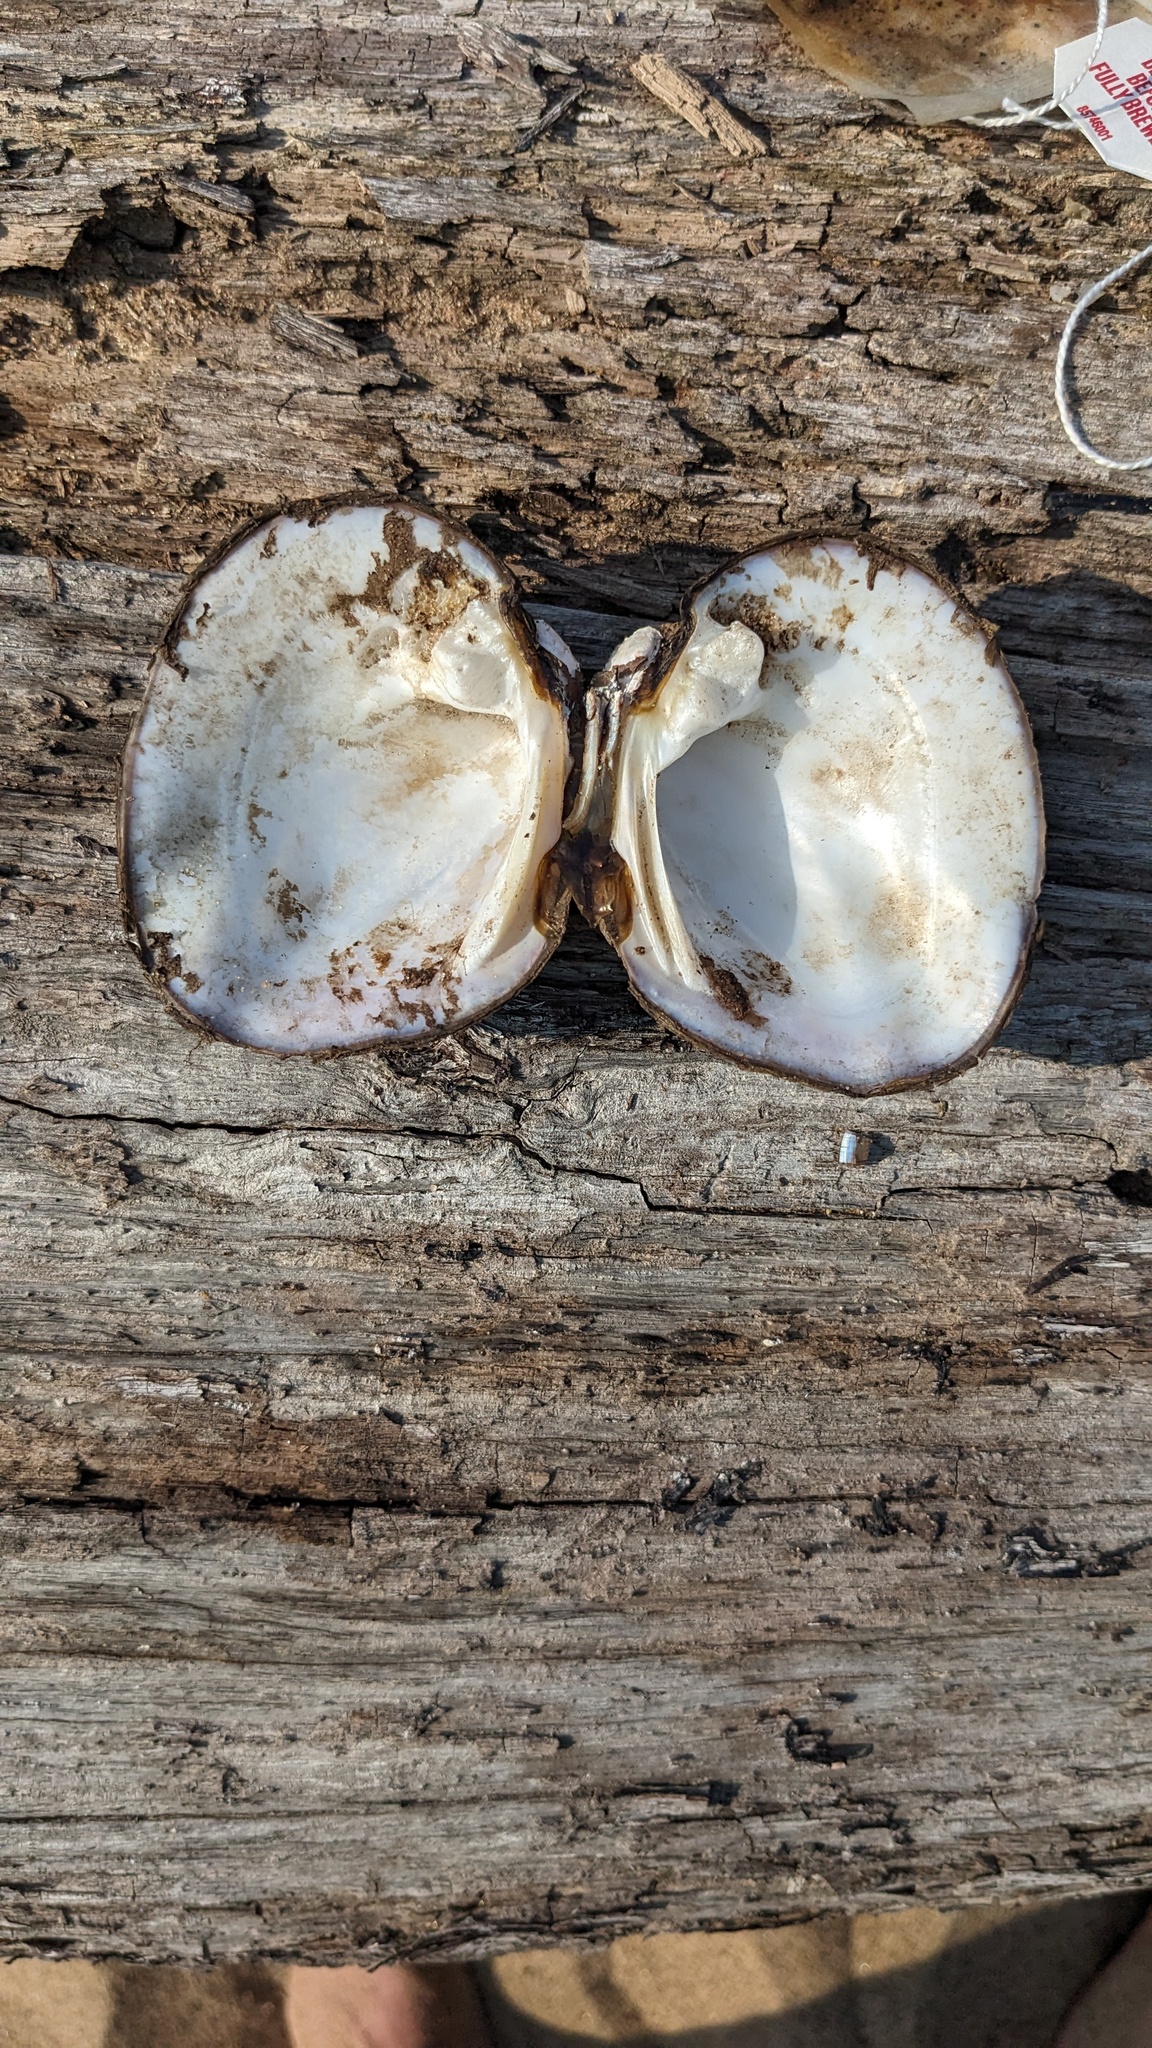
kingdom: Animalia
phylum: Mollusca
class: Bivalvia
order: Unionida
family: Unionidae
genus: Amblema
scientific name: Amblema plicata
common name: Threeridge
